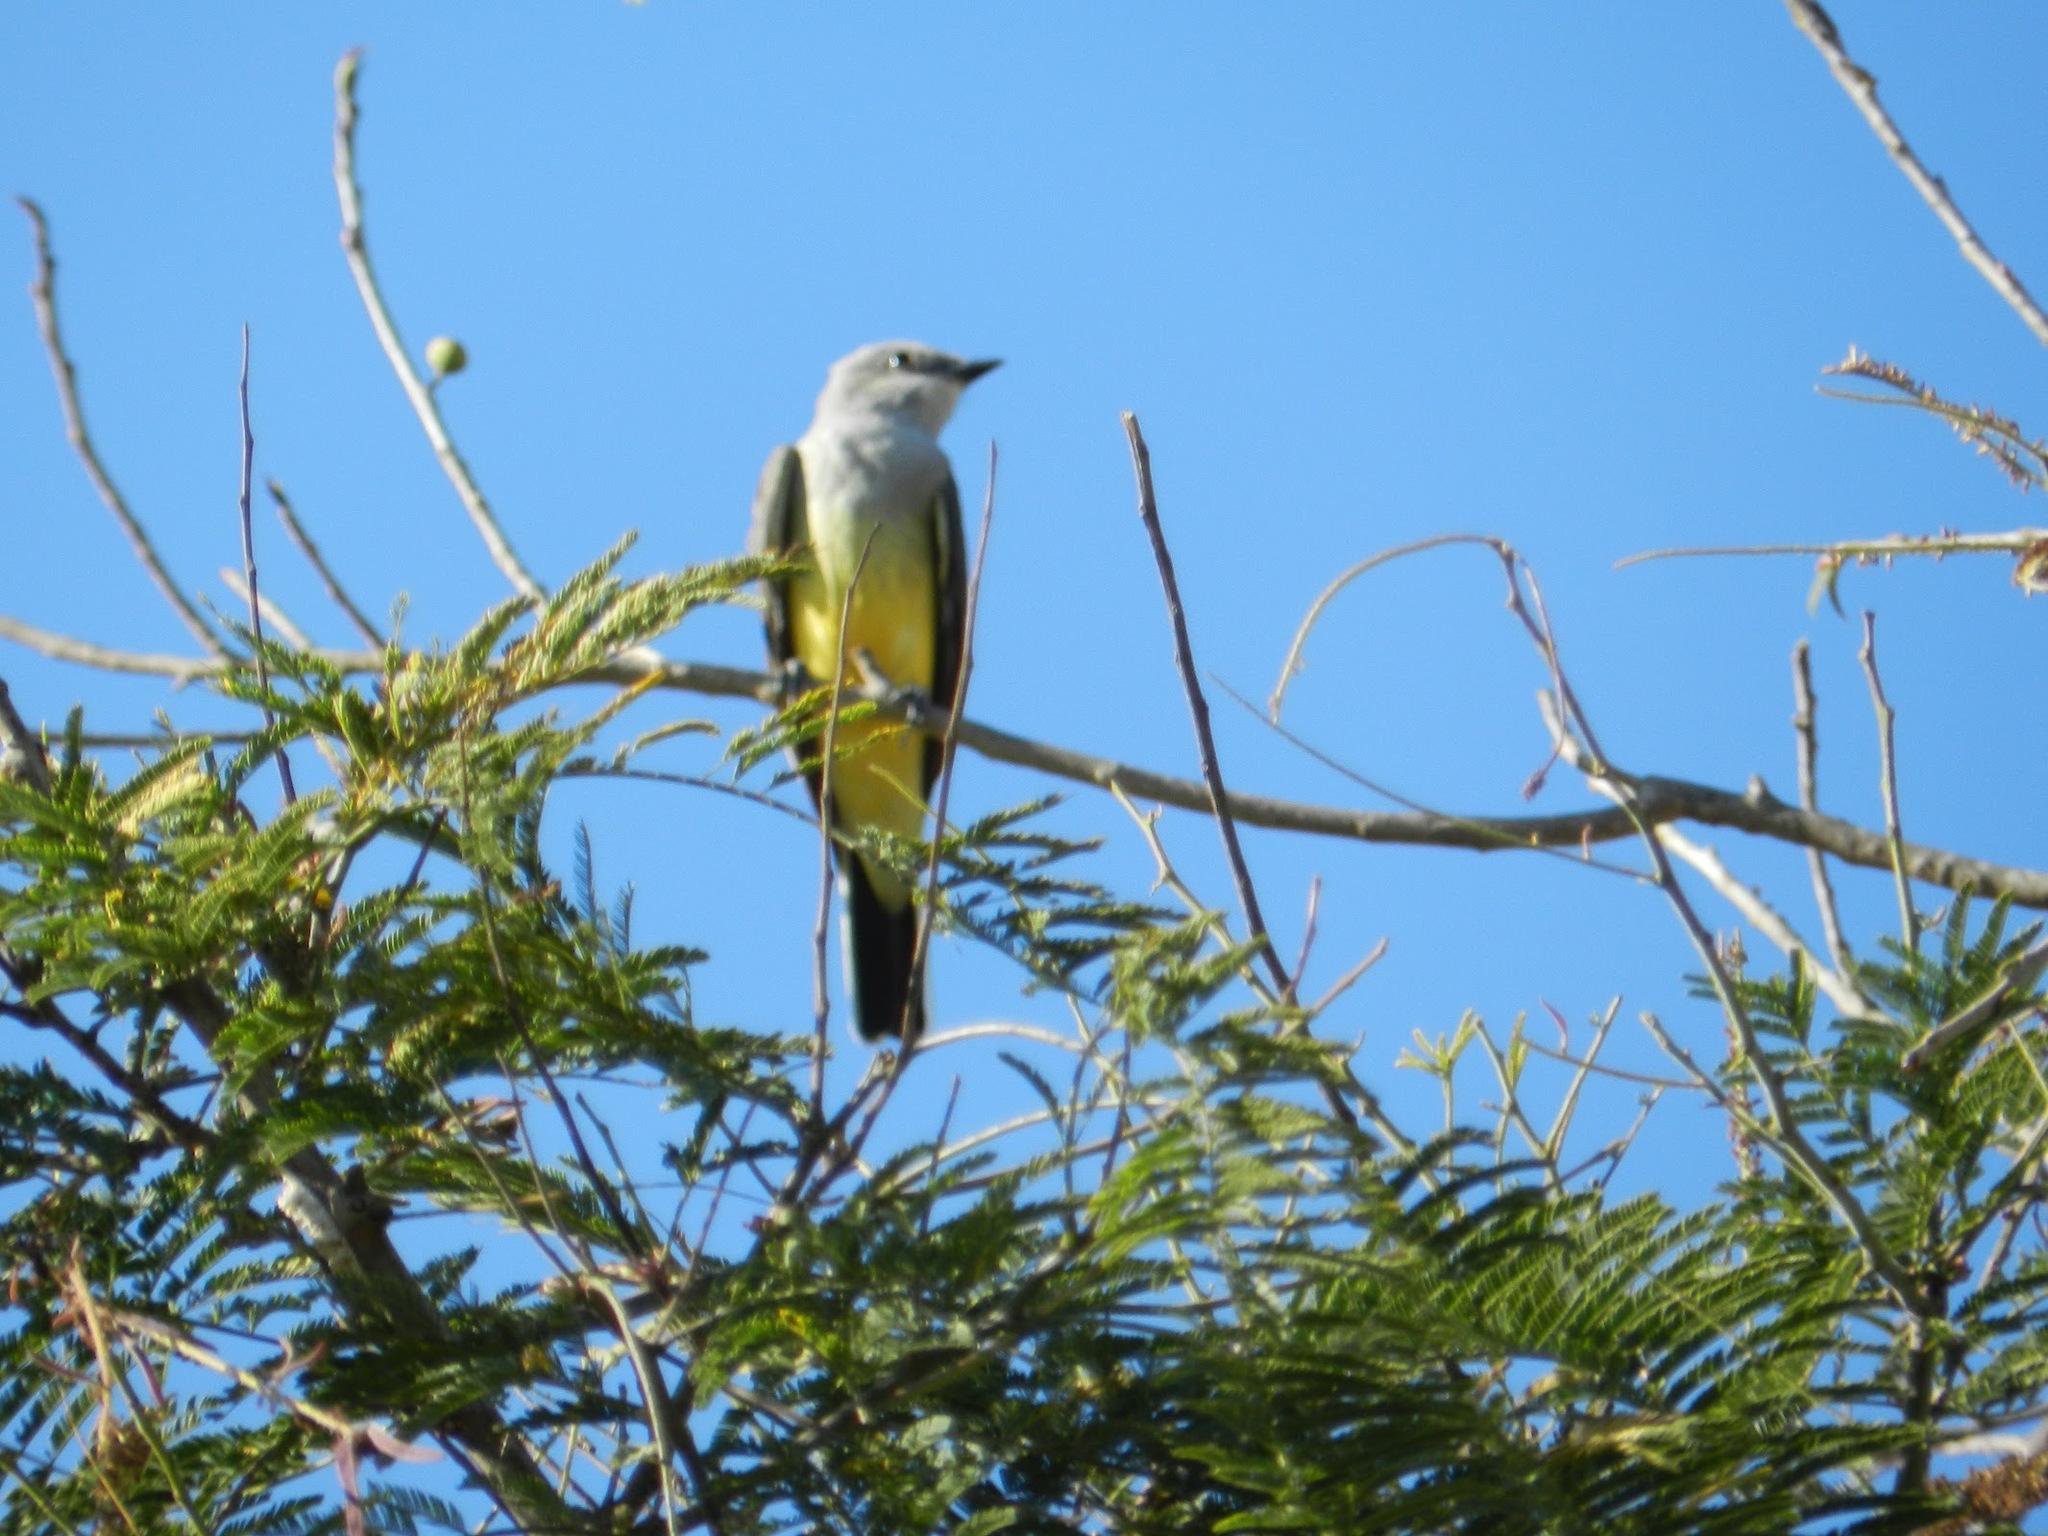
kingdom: Animalia
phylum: Chordata
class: Aves
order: Passeriformes
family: Tyrannidae
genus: Tyrannus
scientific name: Tyrannus verticalis
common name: Western kingbird
